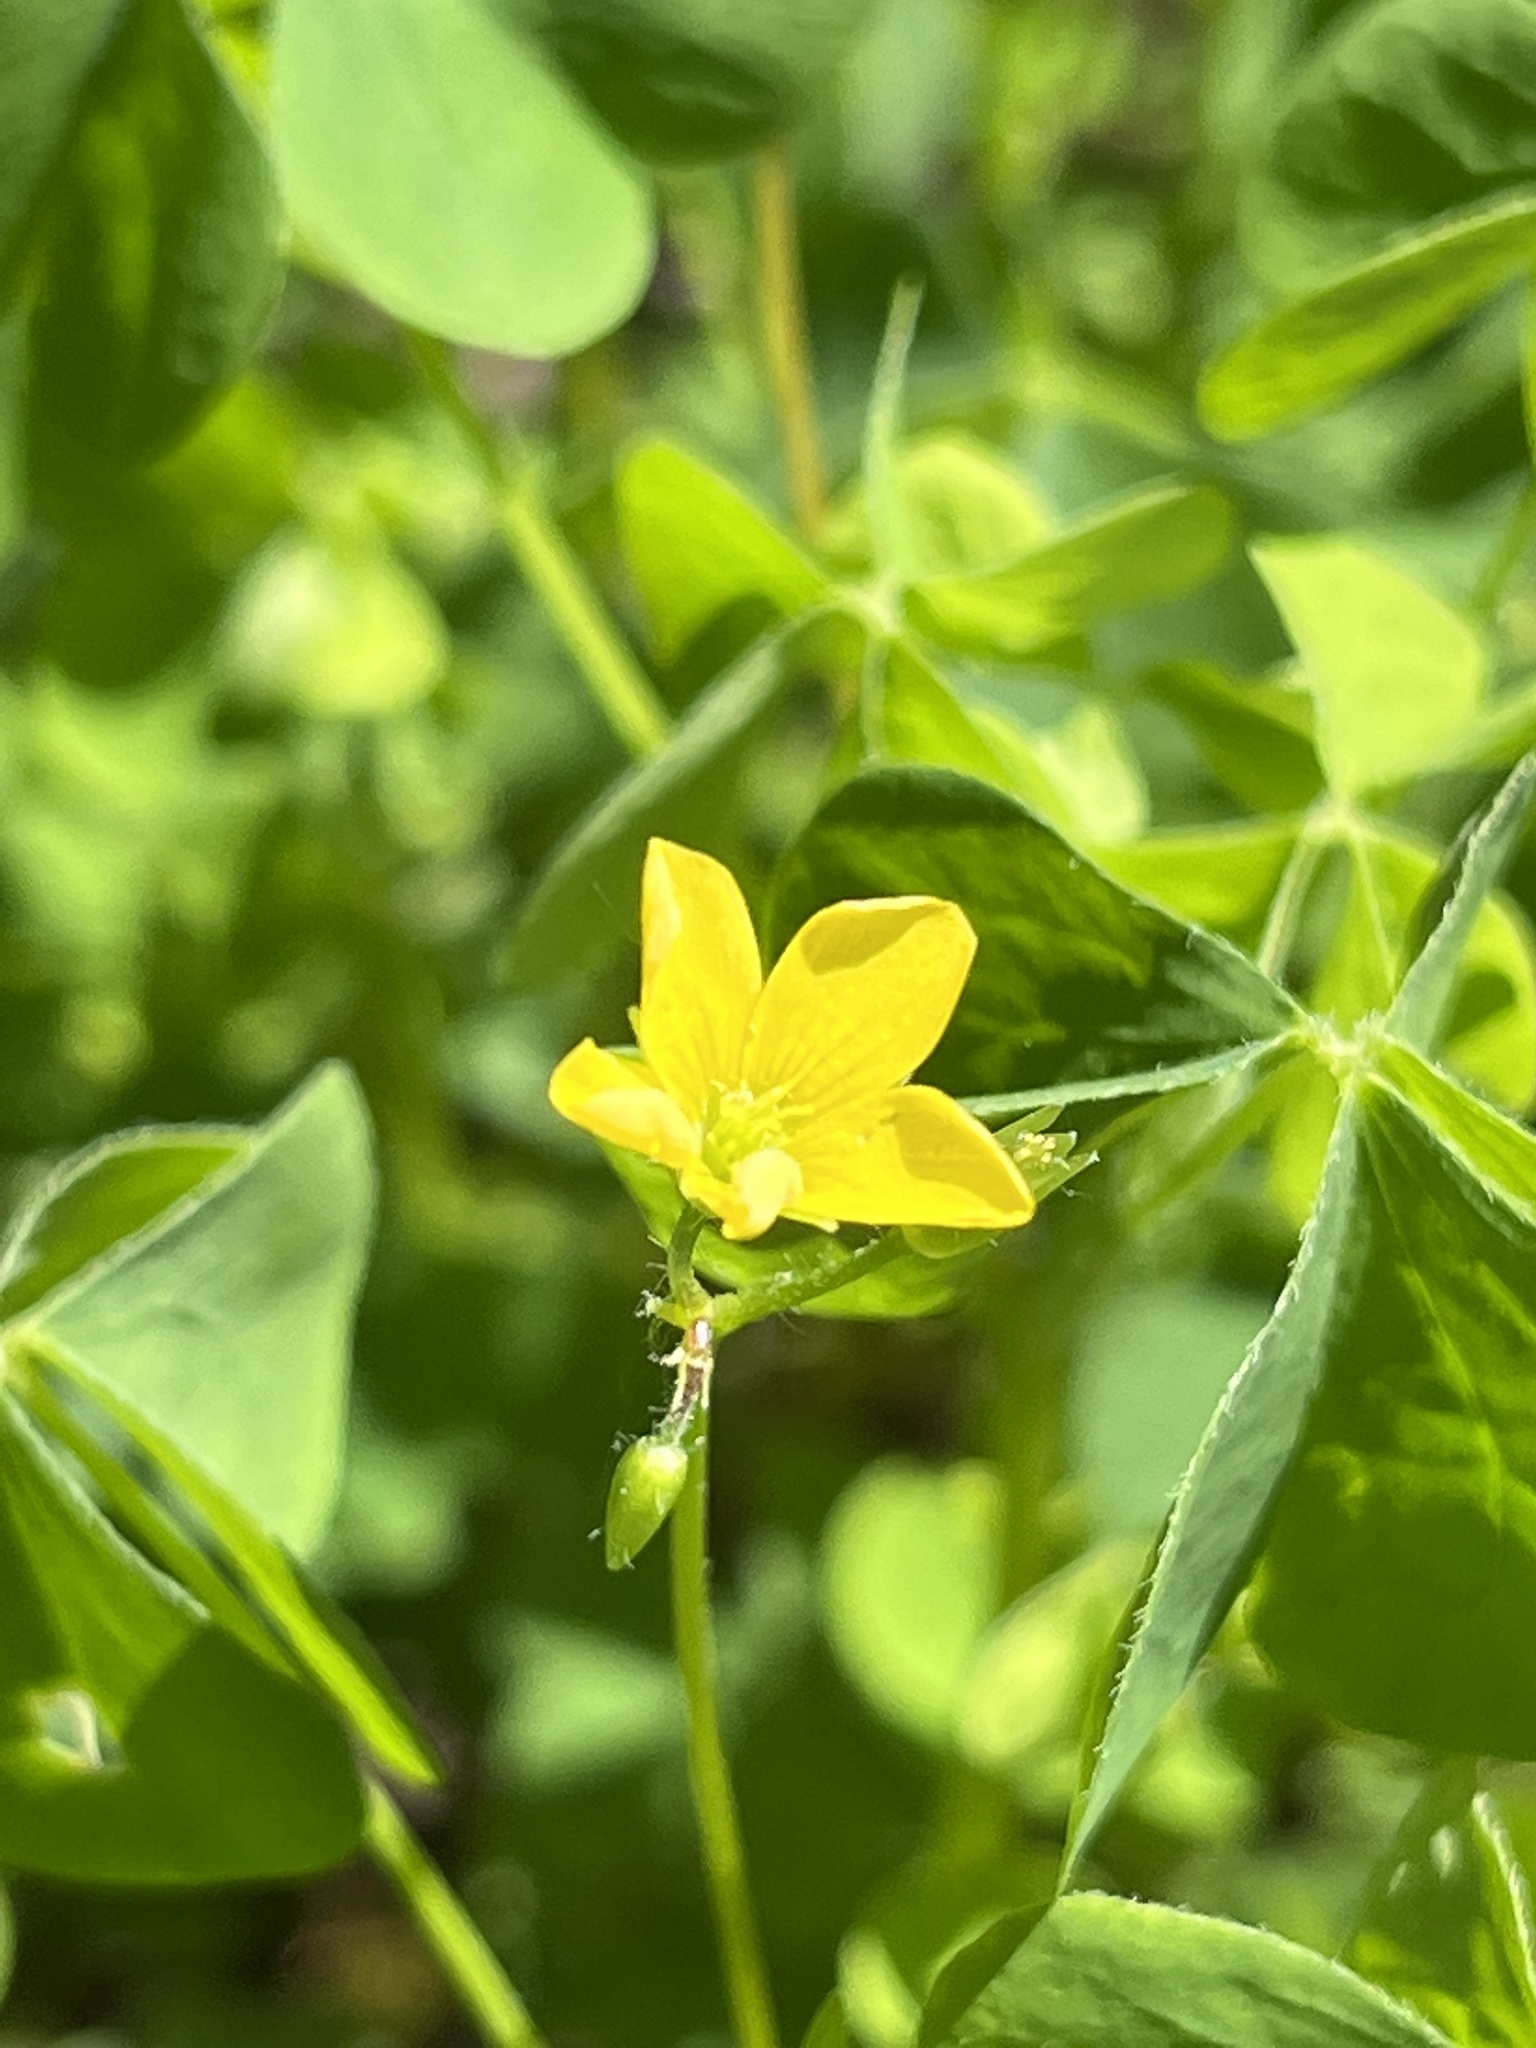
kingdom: Plantae
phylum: Tracheophyta
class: Magnoliopsida
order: Oxalidales
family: Oxalidaceae
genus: Oxalis
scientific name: Oxalis stricta
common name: Upright yellow-sorrel
